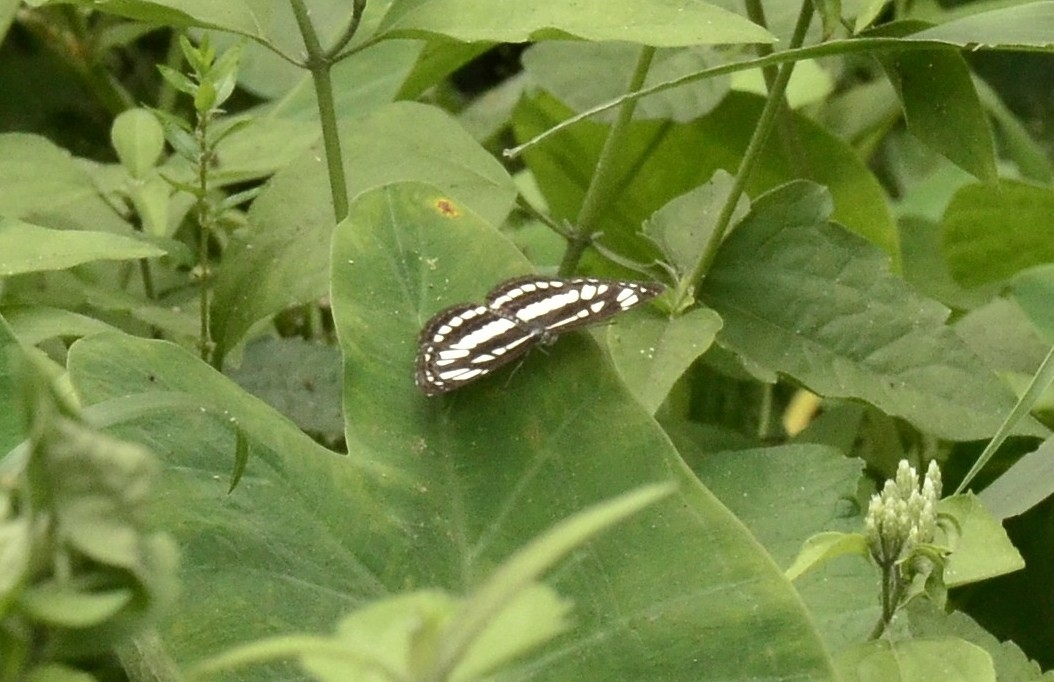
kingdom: Animalia
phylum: Arthropoda
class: Insecta
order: Lepidoptera
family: Nymphalidae
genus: Neptis
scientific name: Neptis hylas
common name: Common sailer
